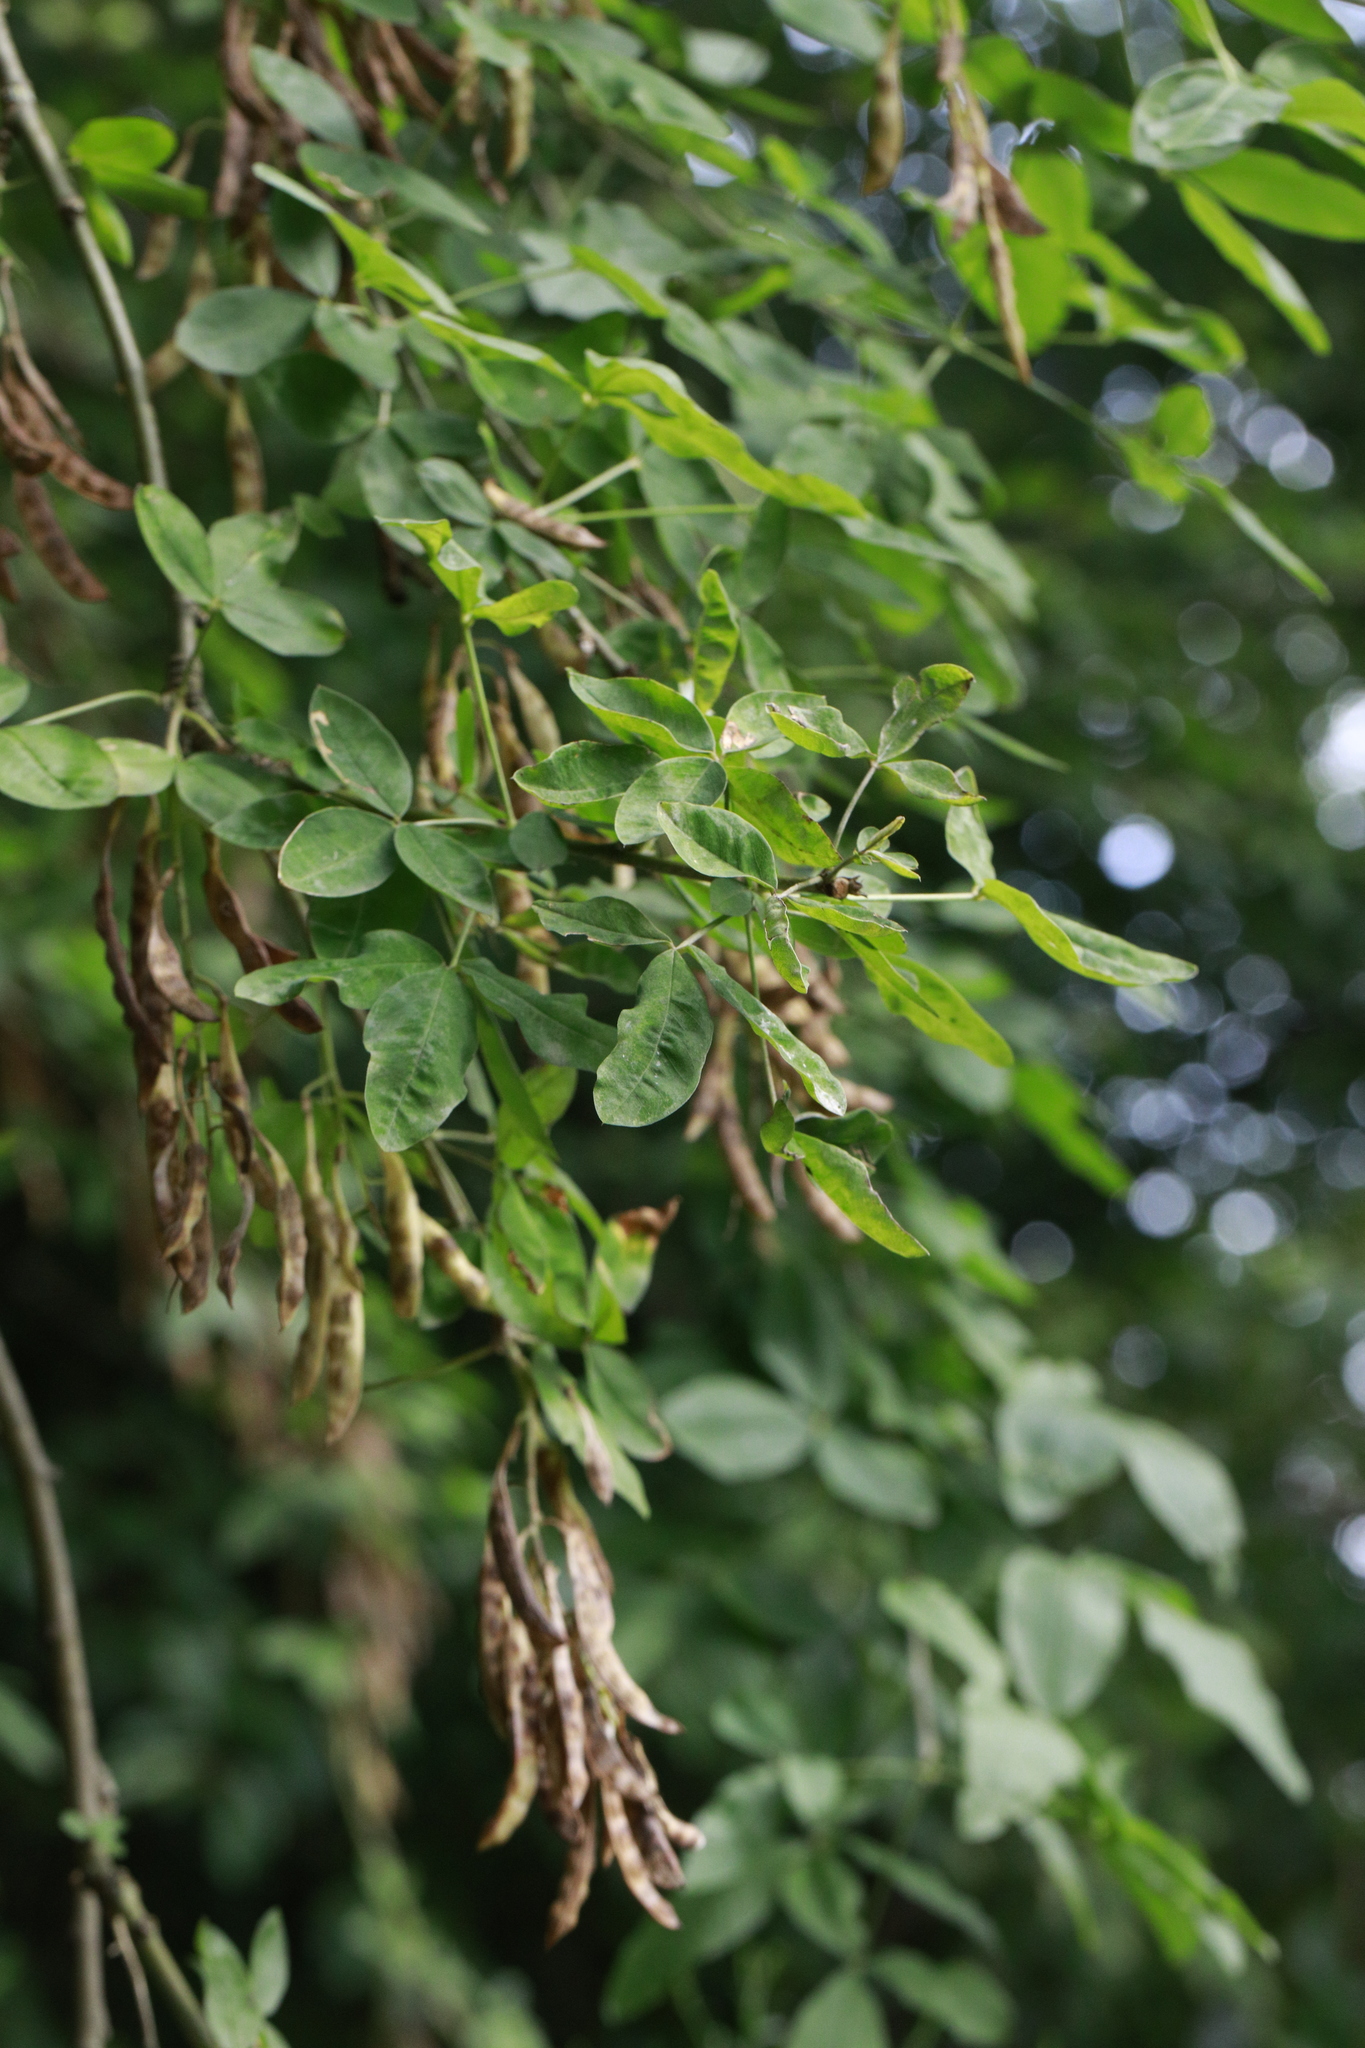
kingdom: Plantae
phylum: Tracheophyta
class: Magnoliopsida
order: Fabales
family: Fabaceae
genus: Laburnum
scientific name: Laburnum anagyroides
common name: Laburnum
